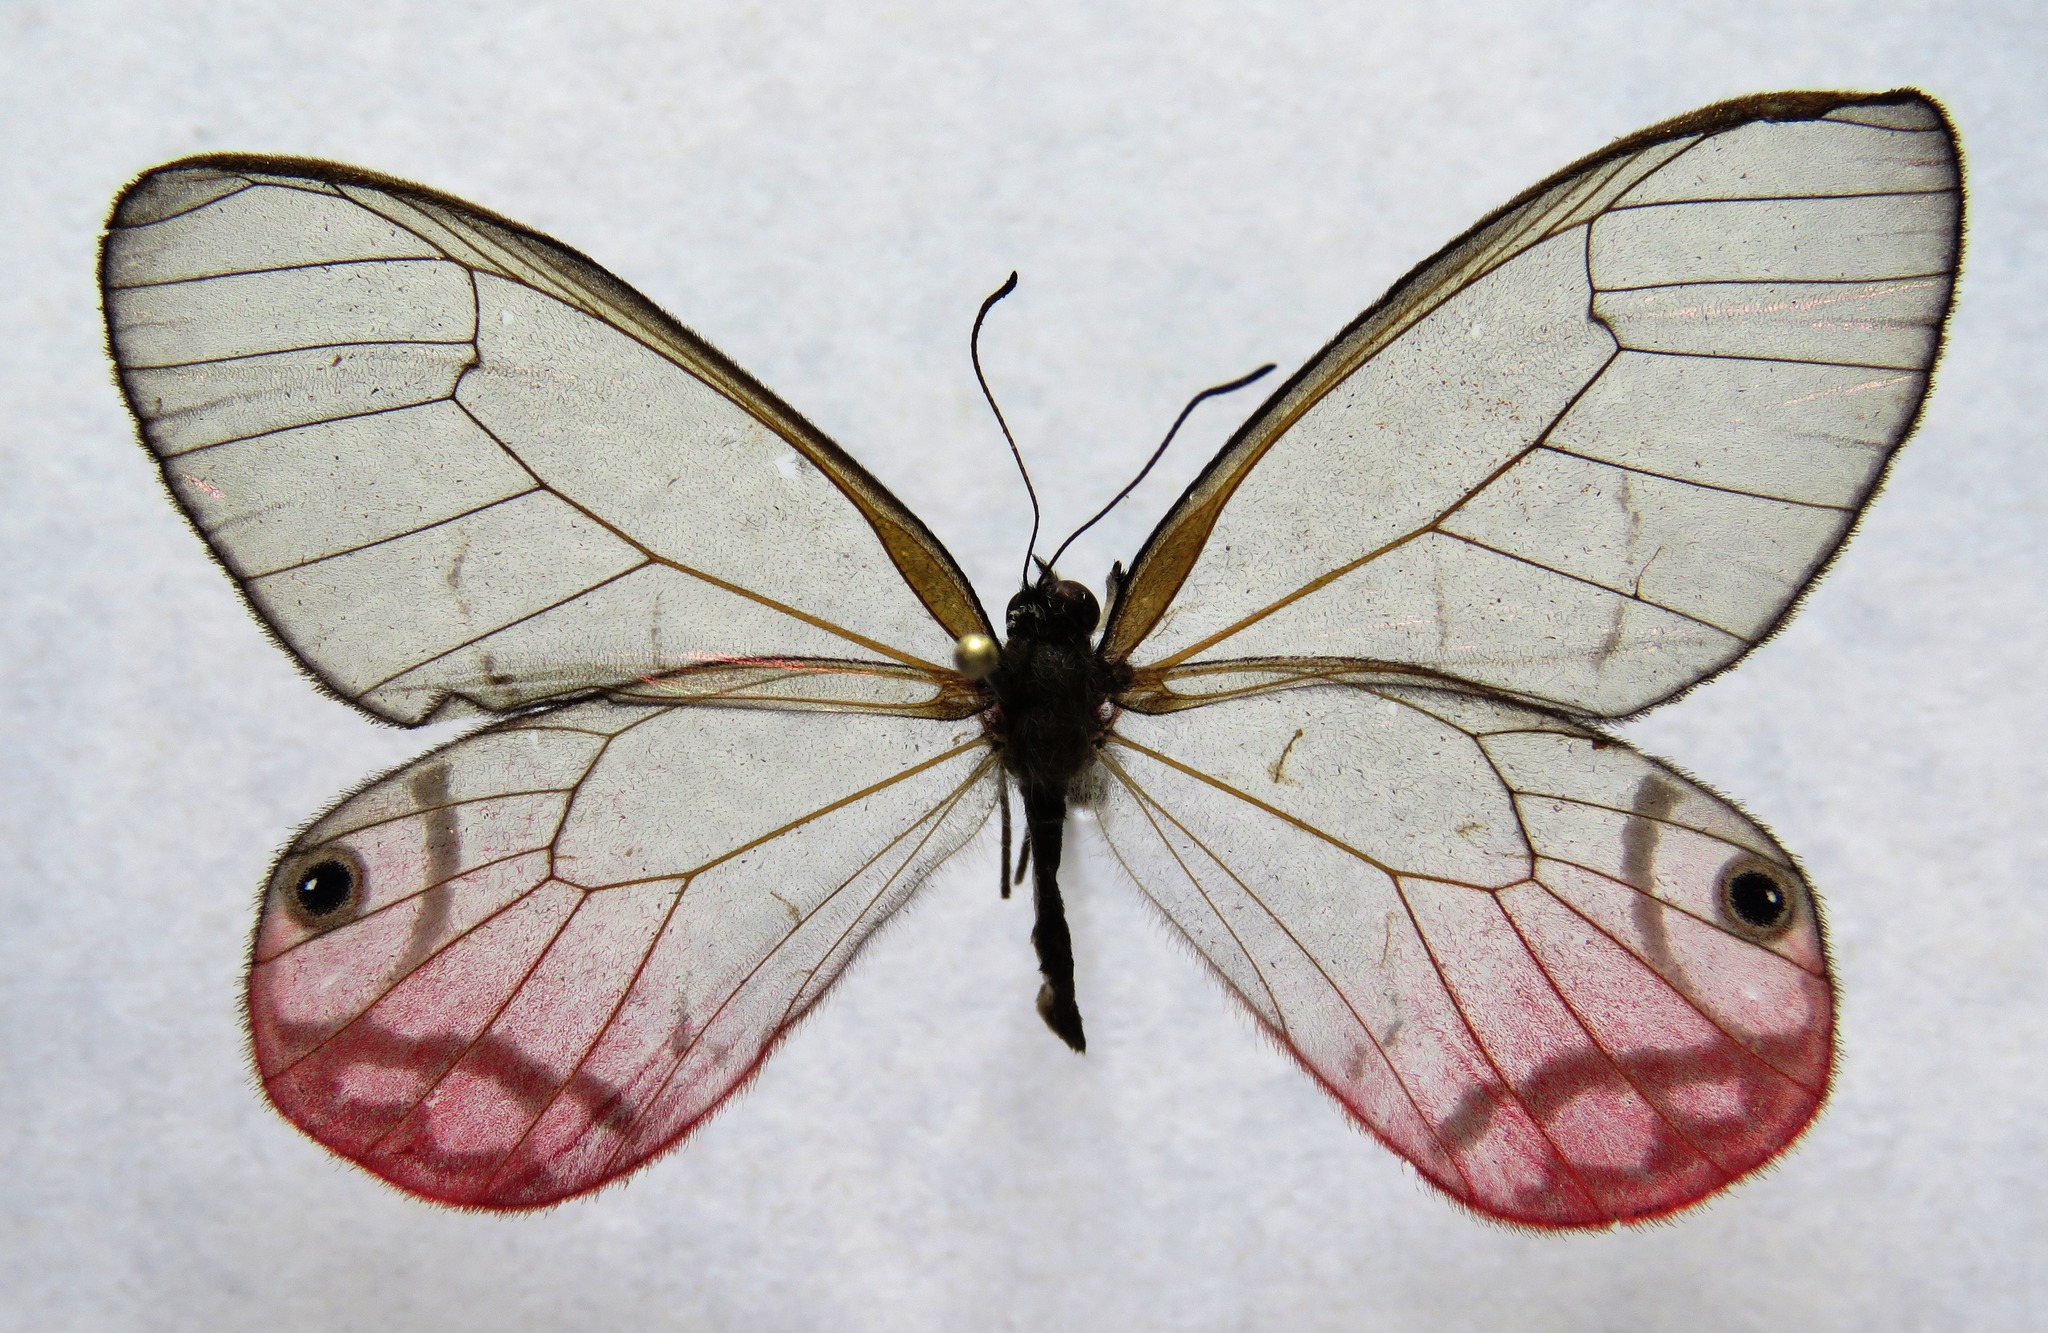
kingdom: Animalia
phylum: Arthropoda
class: Insecta
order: Lepidoptera
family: Nymphalidae
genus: Cithaerias
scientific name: Cithaerias pireta
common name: Rusted clearwing-satyr
